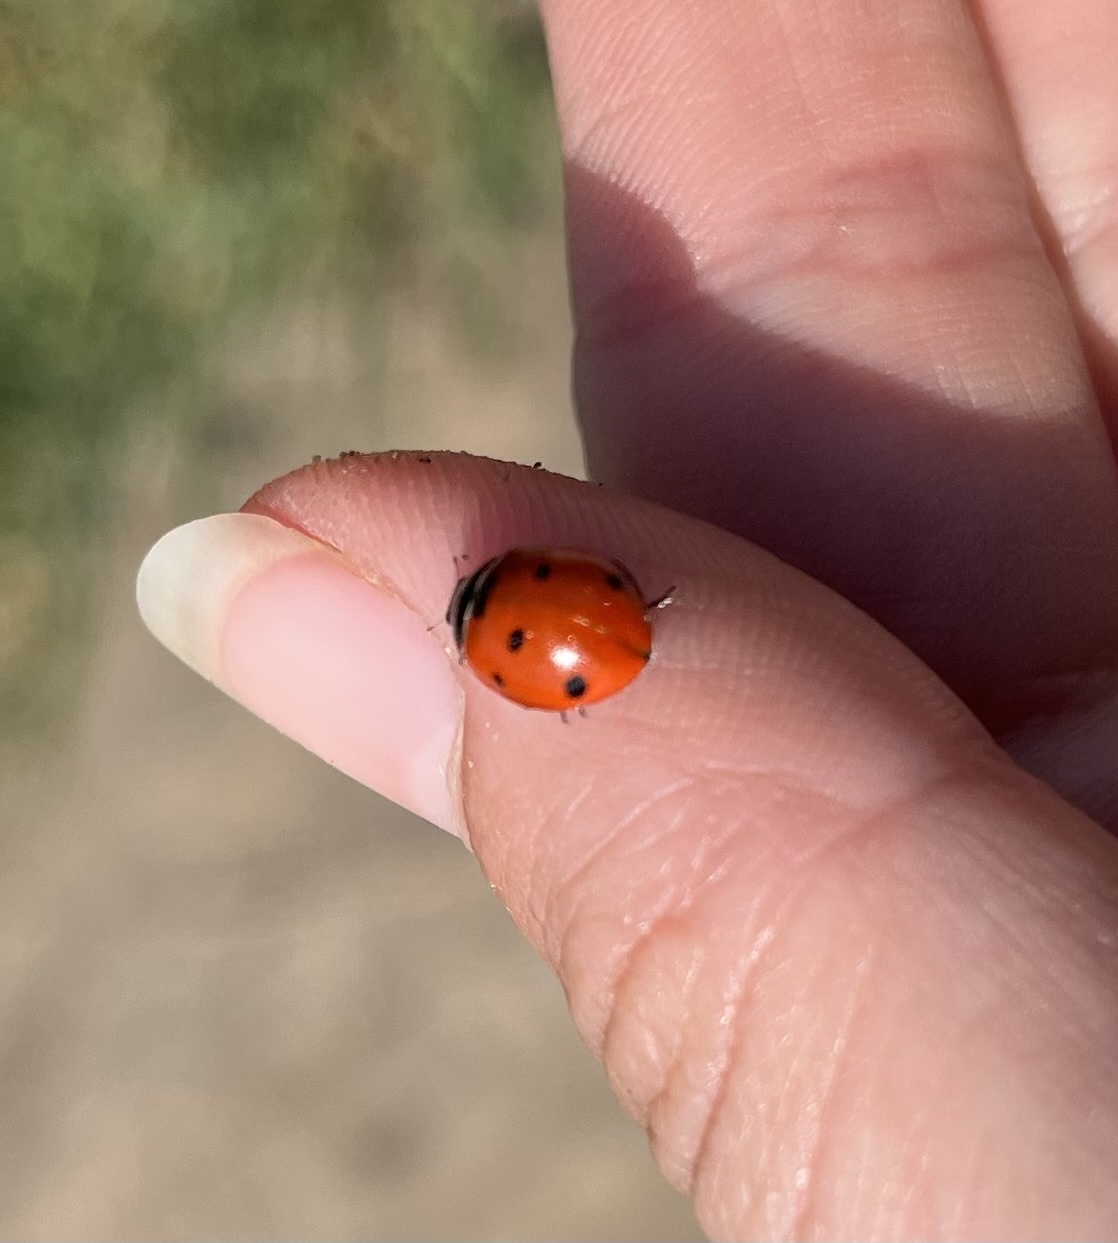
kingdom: Animalia
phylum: Arthropoda
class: Insecta
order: Coleoptera
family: Coccinellidae
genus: Coccinella
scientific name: Coccinella septempunctata
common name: Sevenspotted lady beetle
